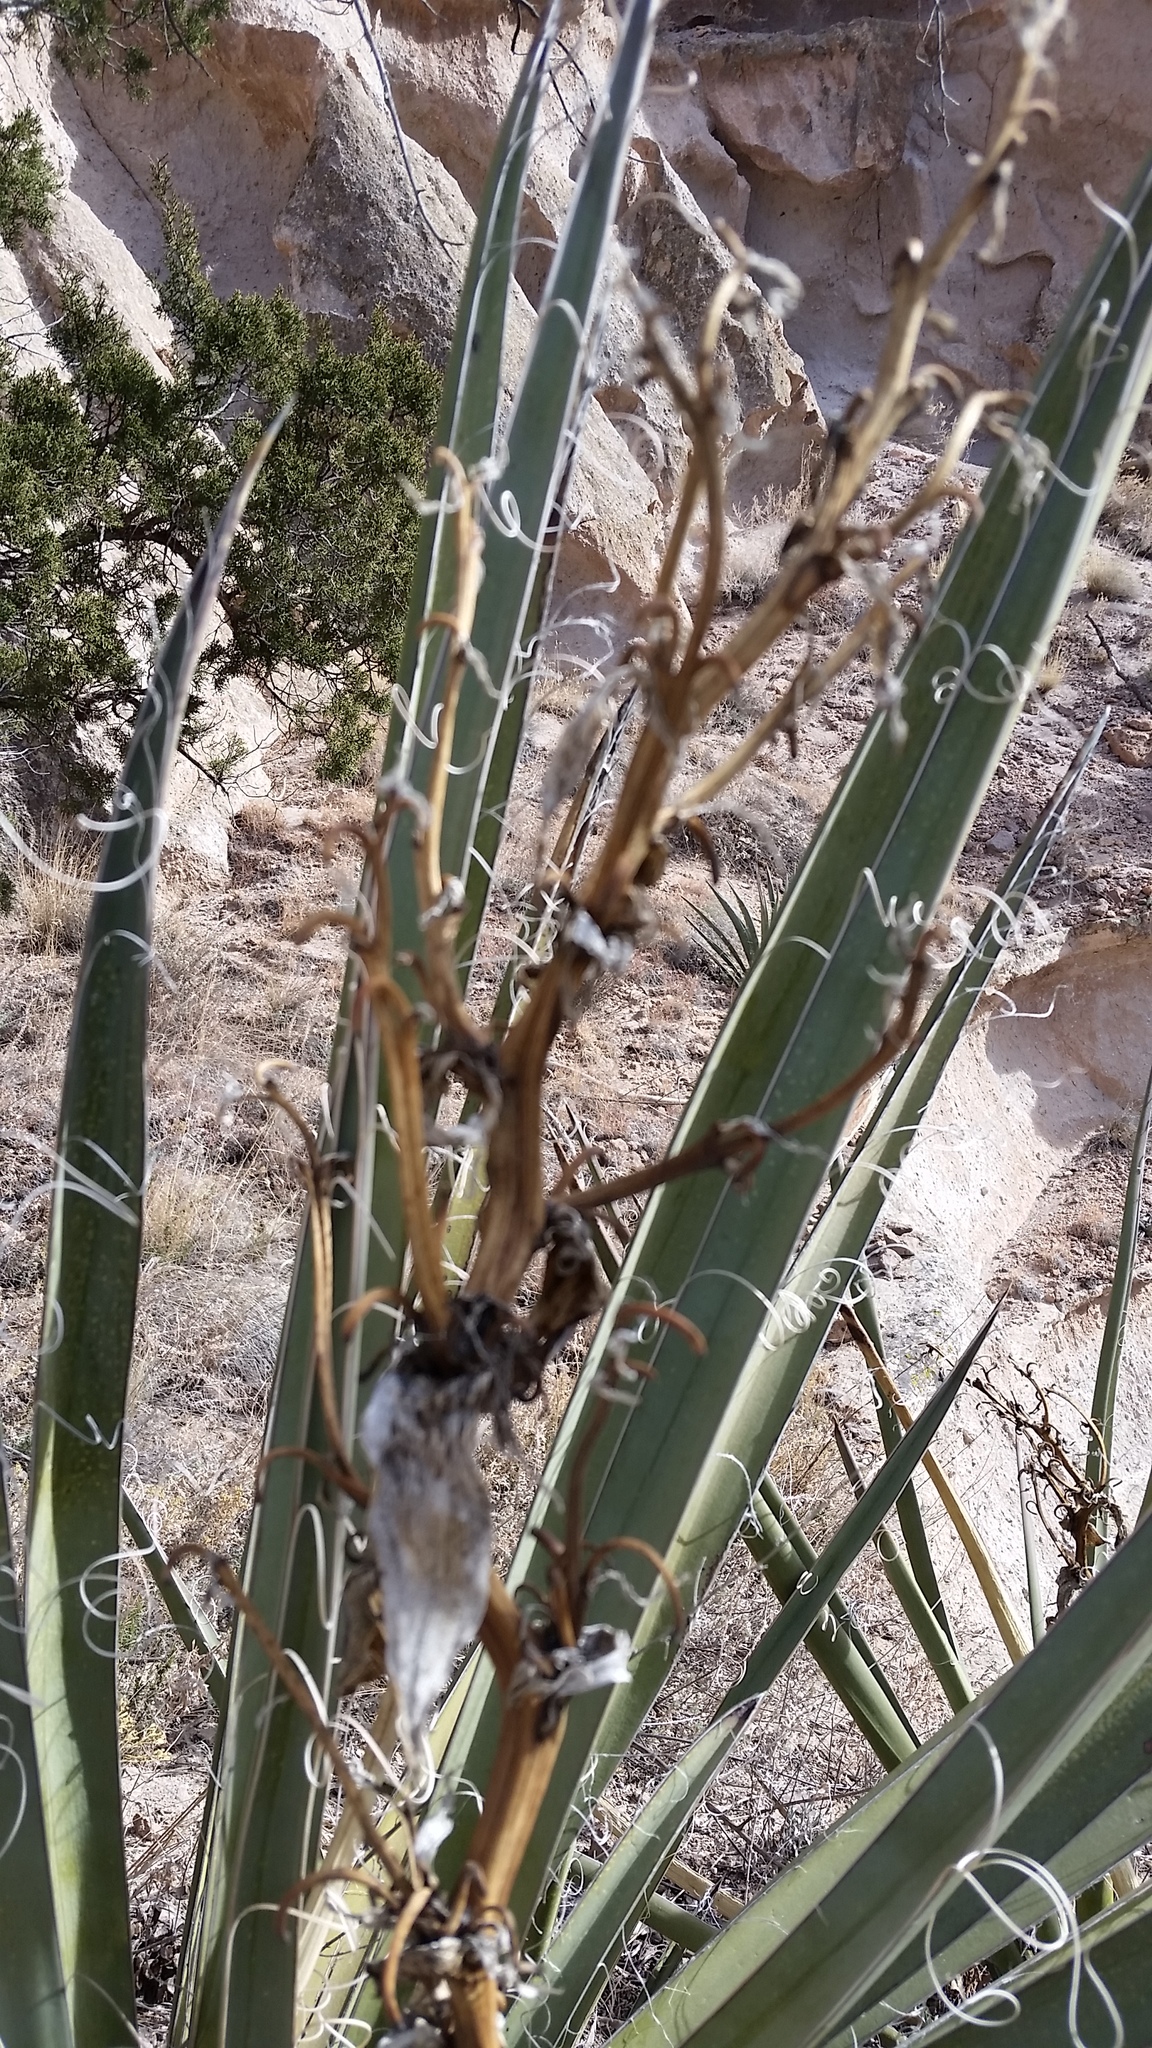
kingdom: Plantae
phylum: Tracheophyta
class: Liliopsida
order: Asparagales
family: Asparagaceae
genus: Yucca
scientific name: Yucca baccata
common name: Banana yucca
